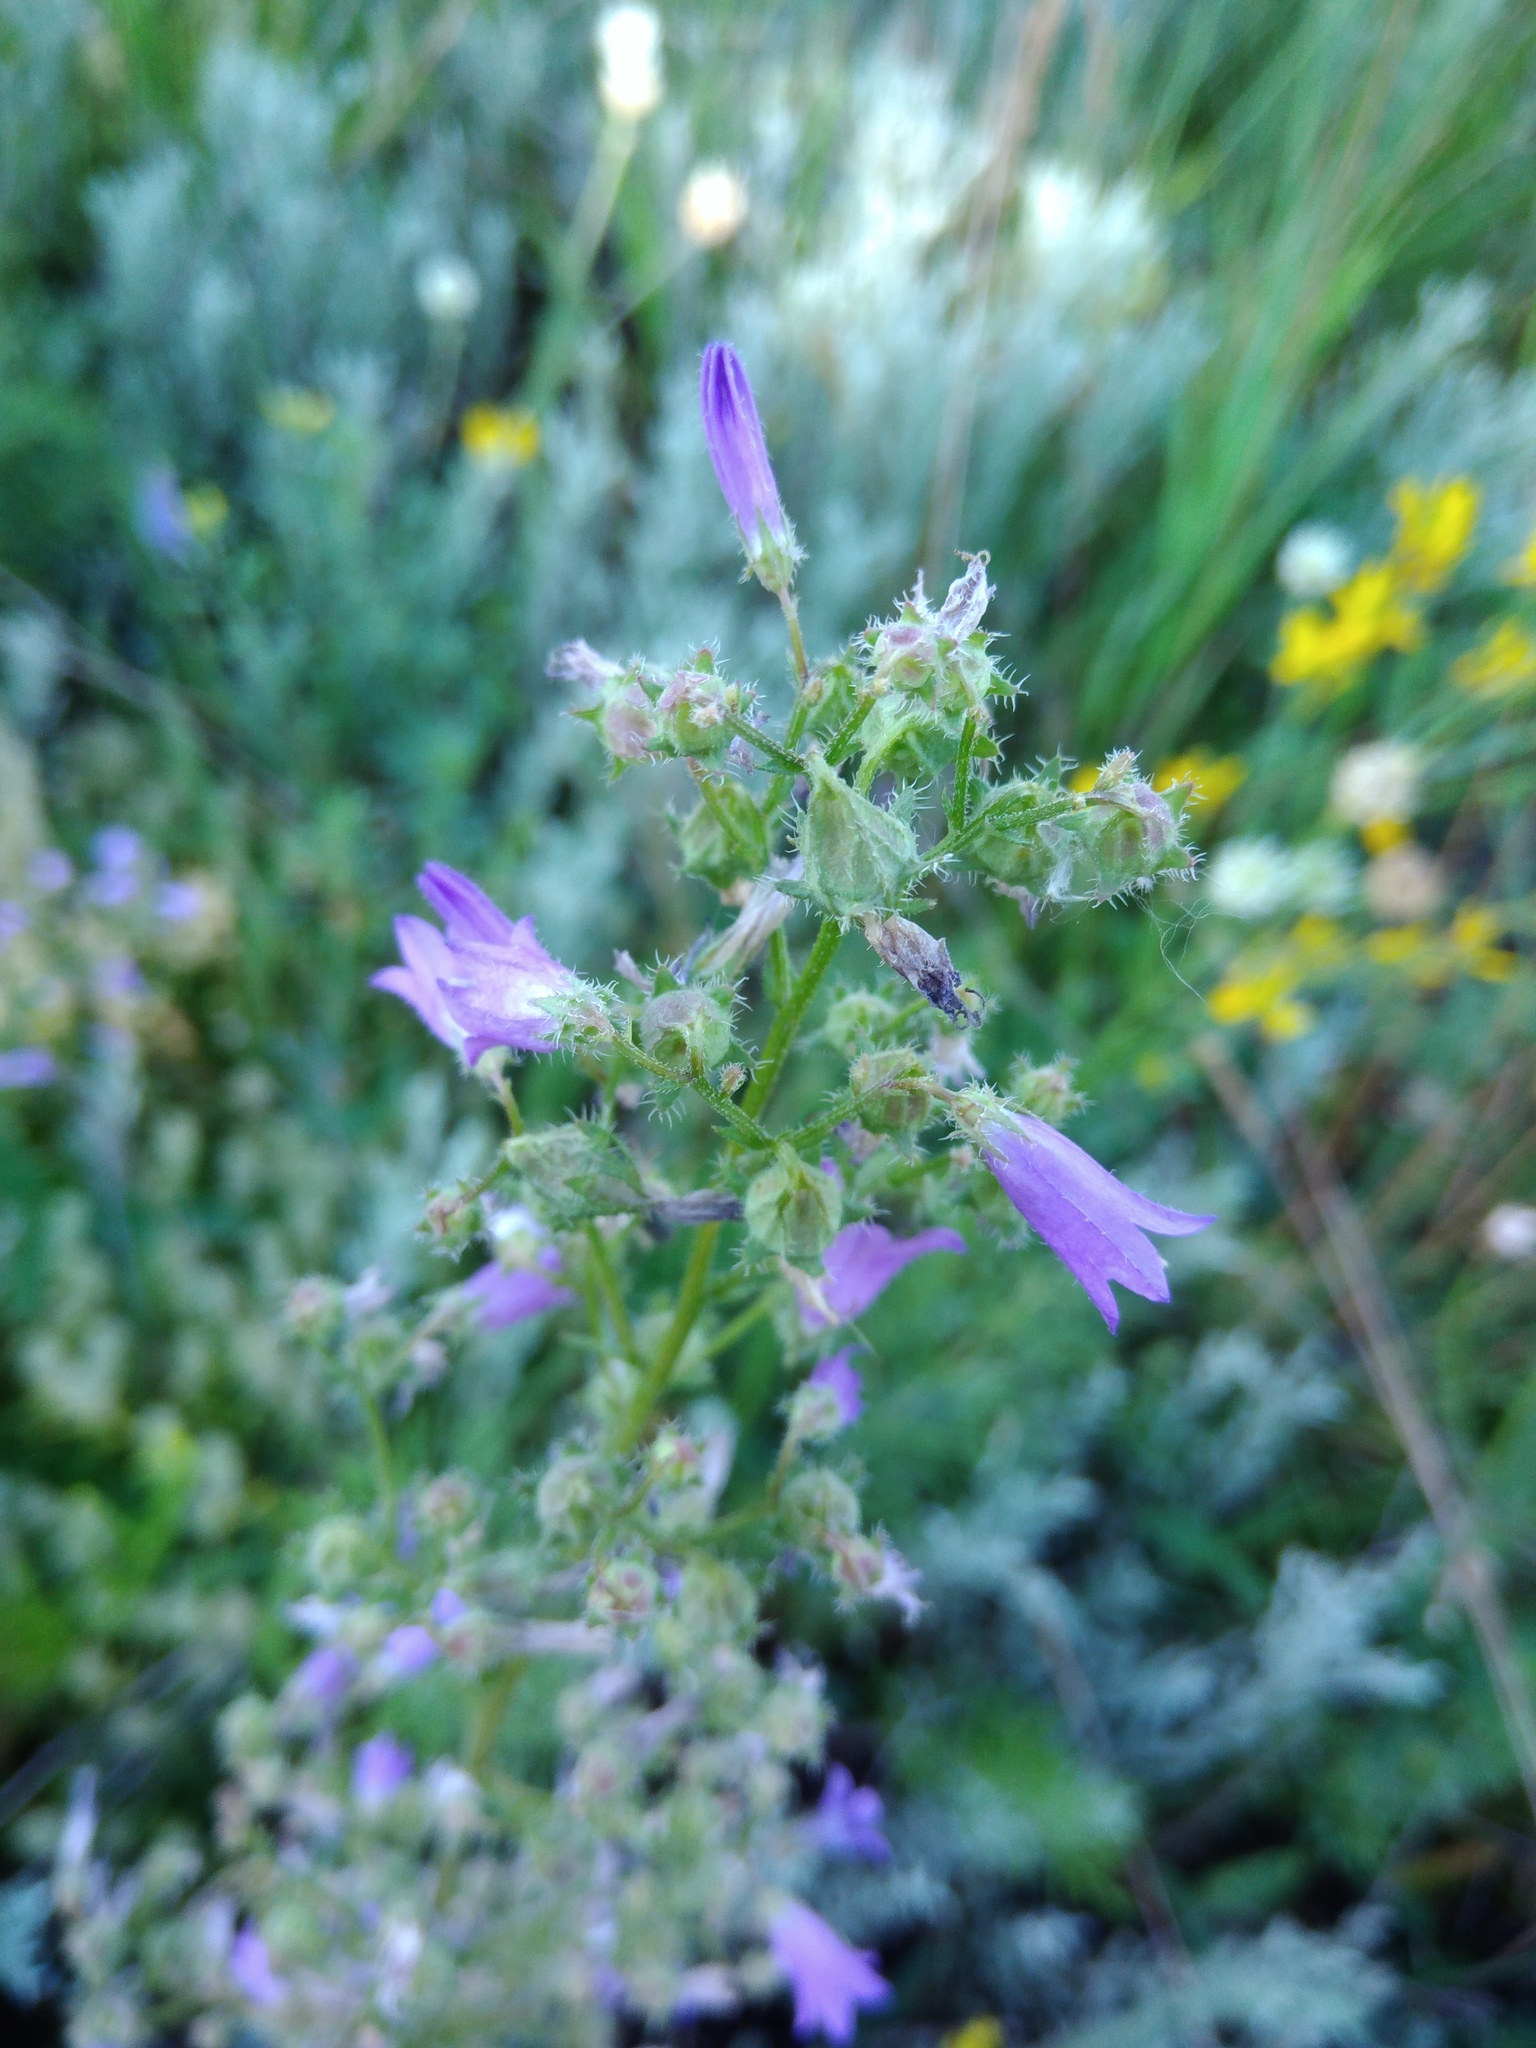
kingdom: Plantae
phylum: Tracheophyta
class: Magnoliopsida
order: Asterales
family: Campanulaceae
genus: Campanula
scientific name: Campanula sibirica
